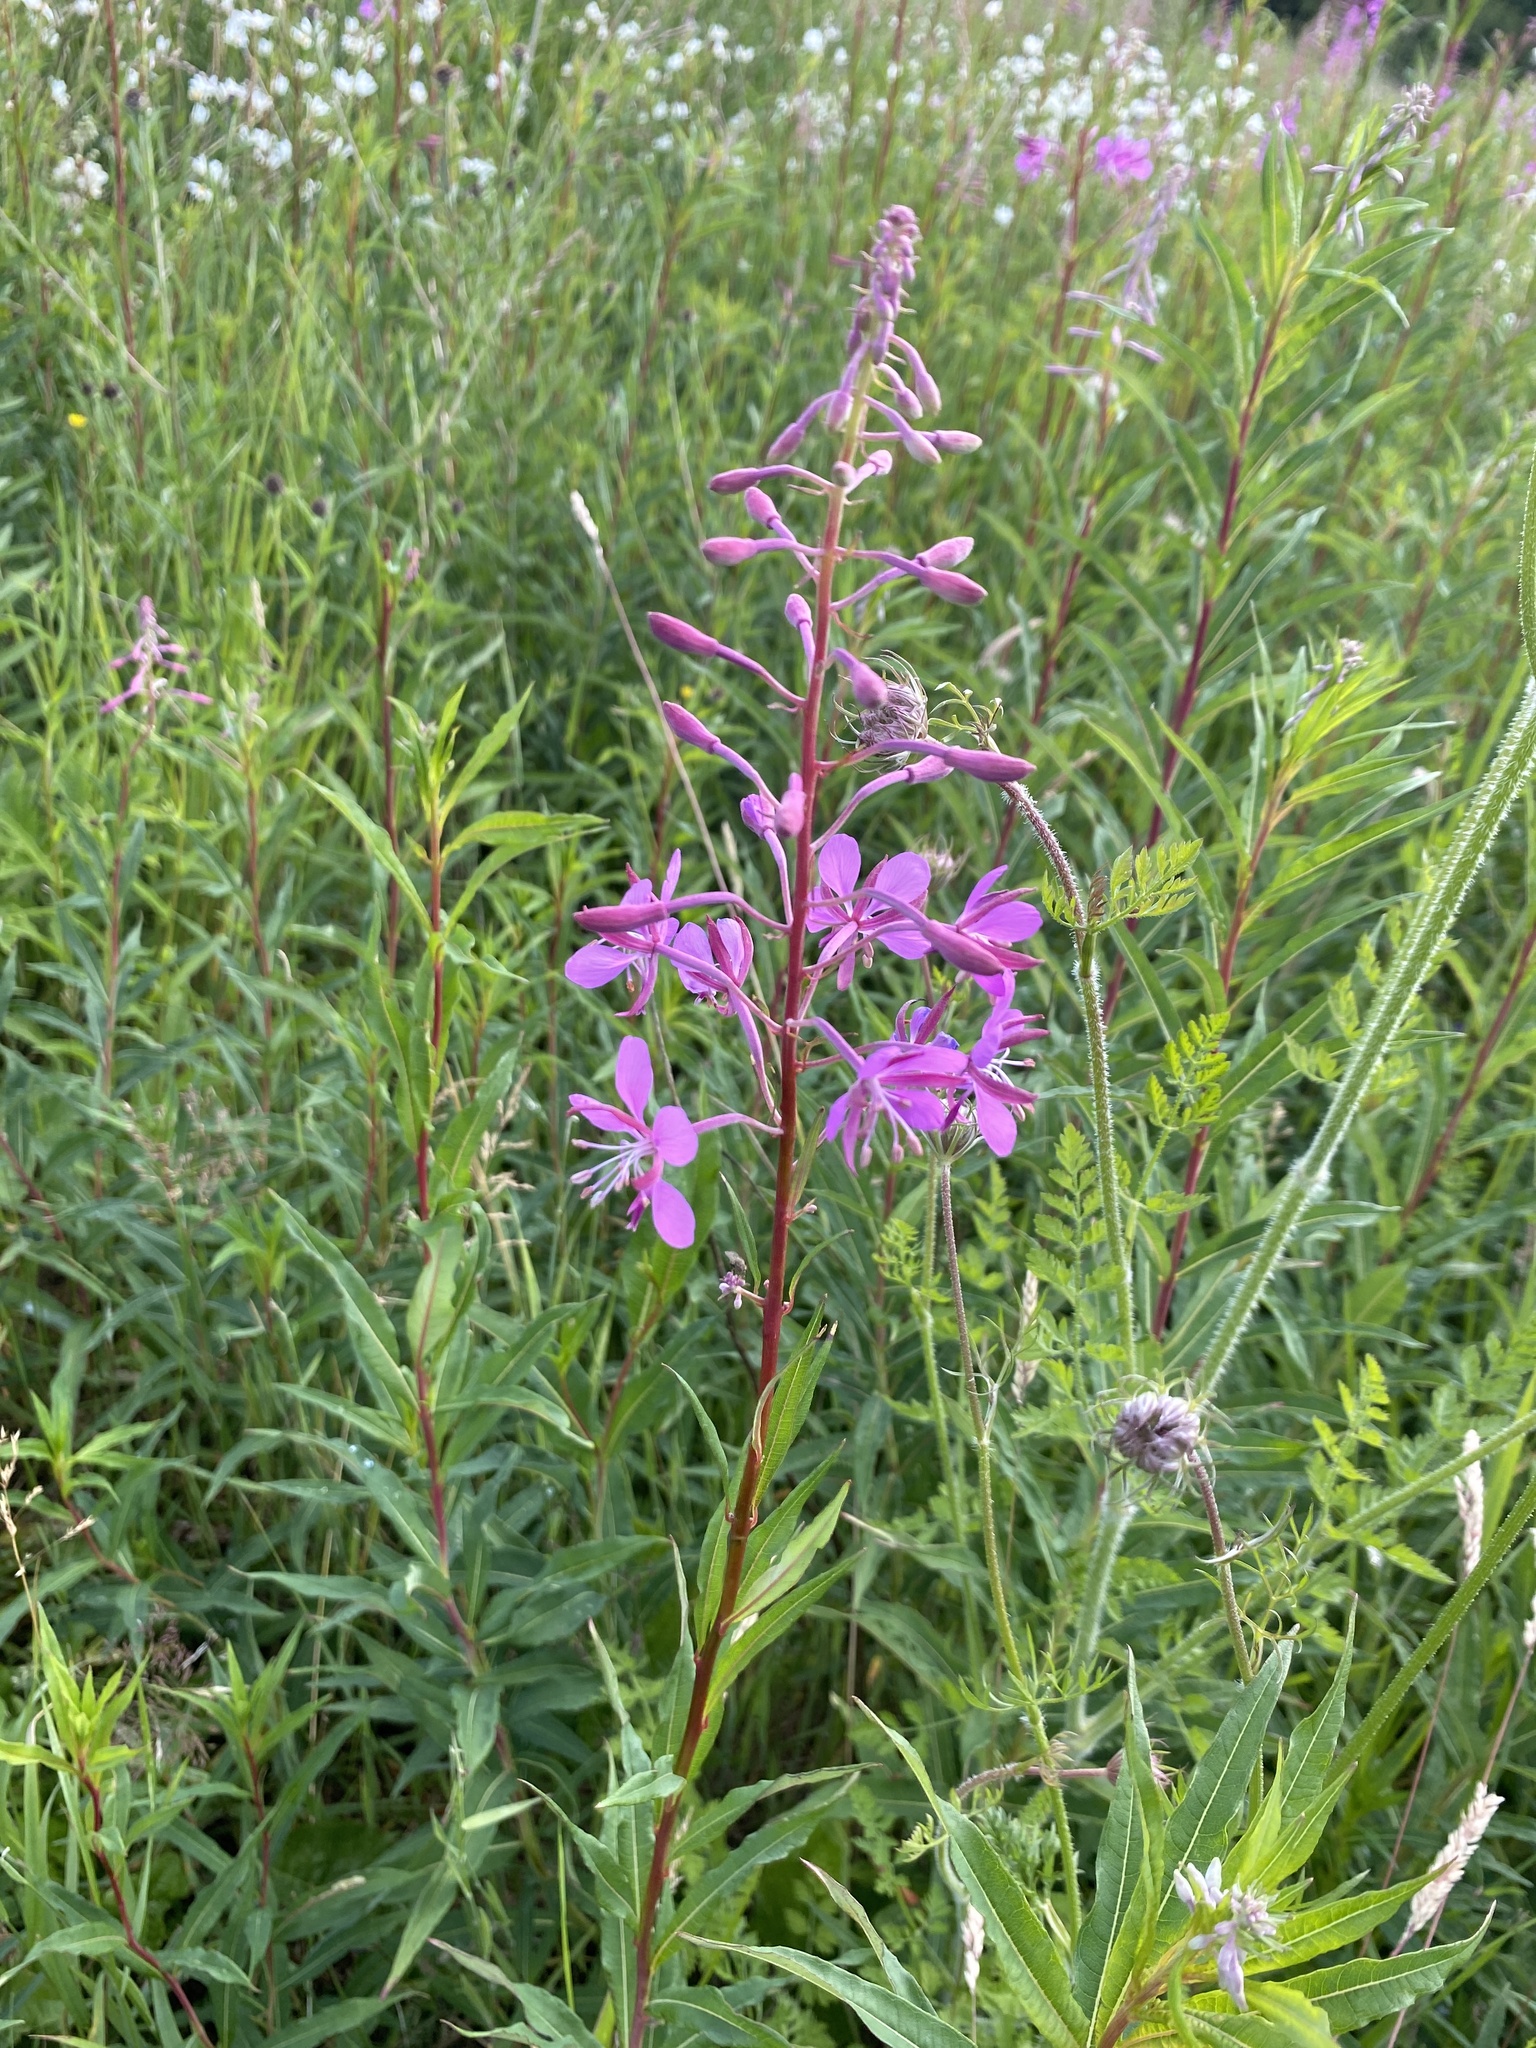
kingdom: Plantae
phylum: Tracheophyta
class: Magnoliopsida
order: Myrtales
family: Onagraceae
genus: Chamaenerion
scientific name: Chamaenerion angustifolium
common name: Fireweed
